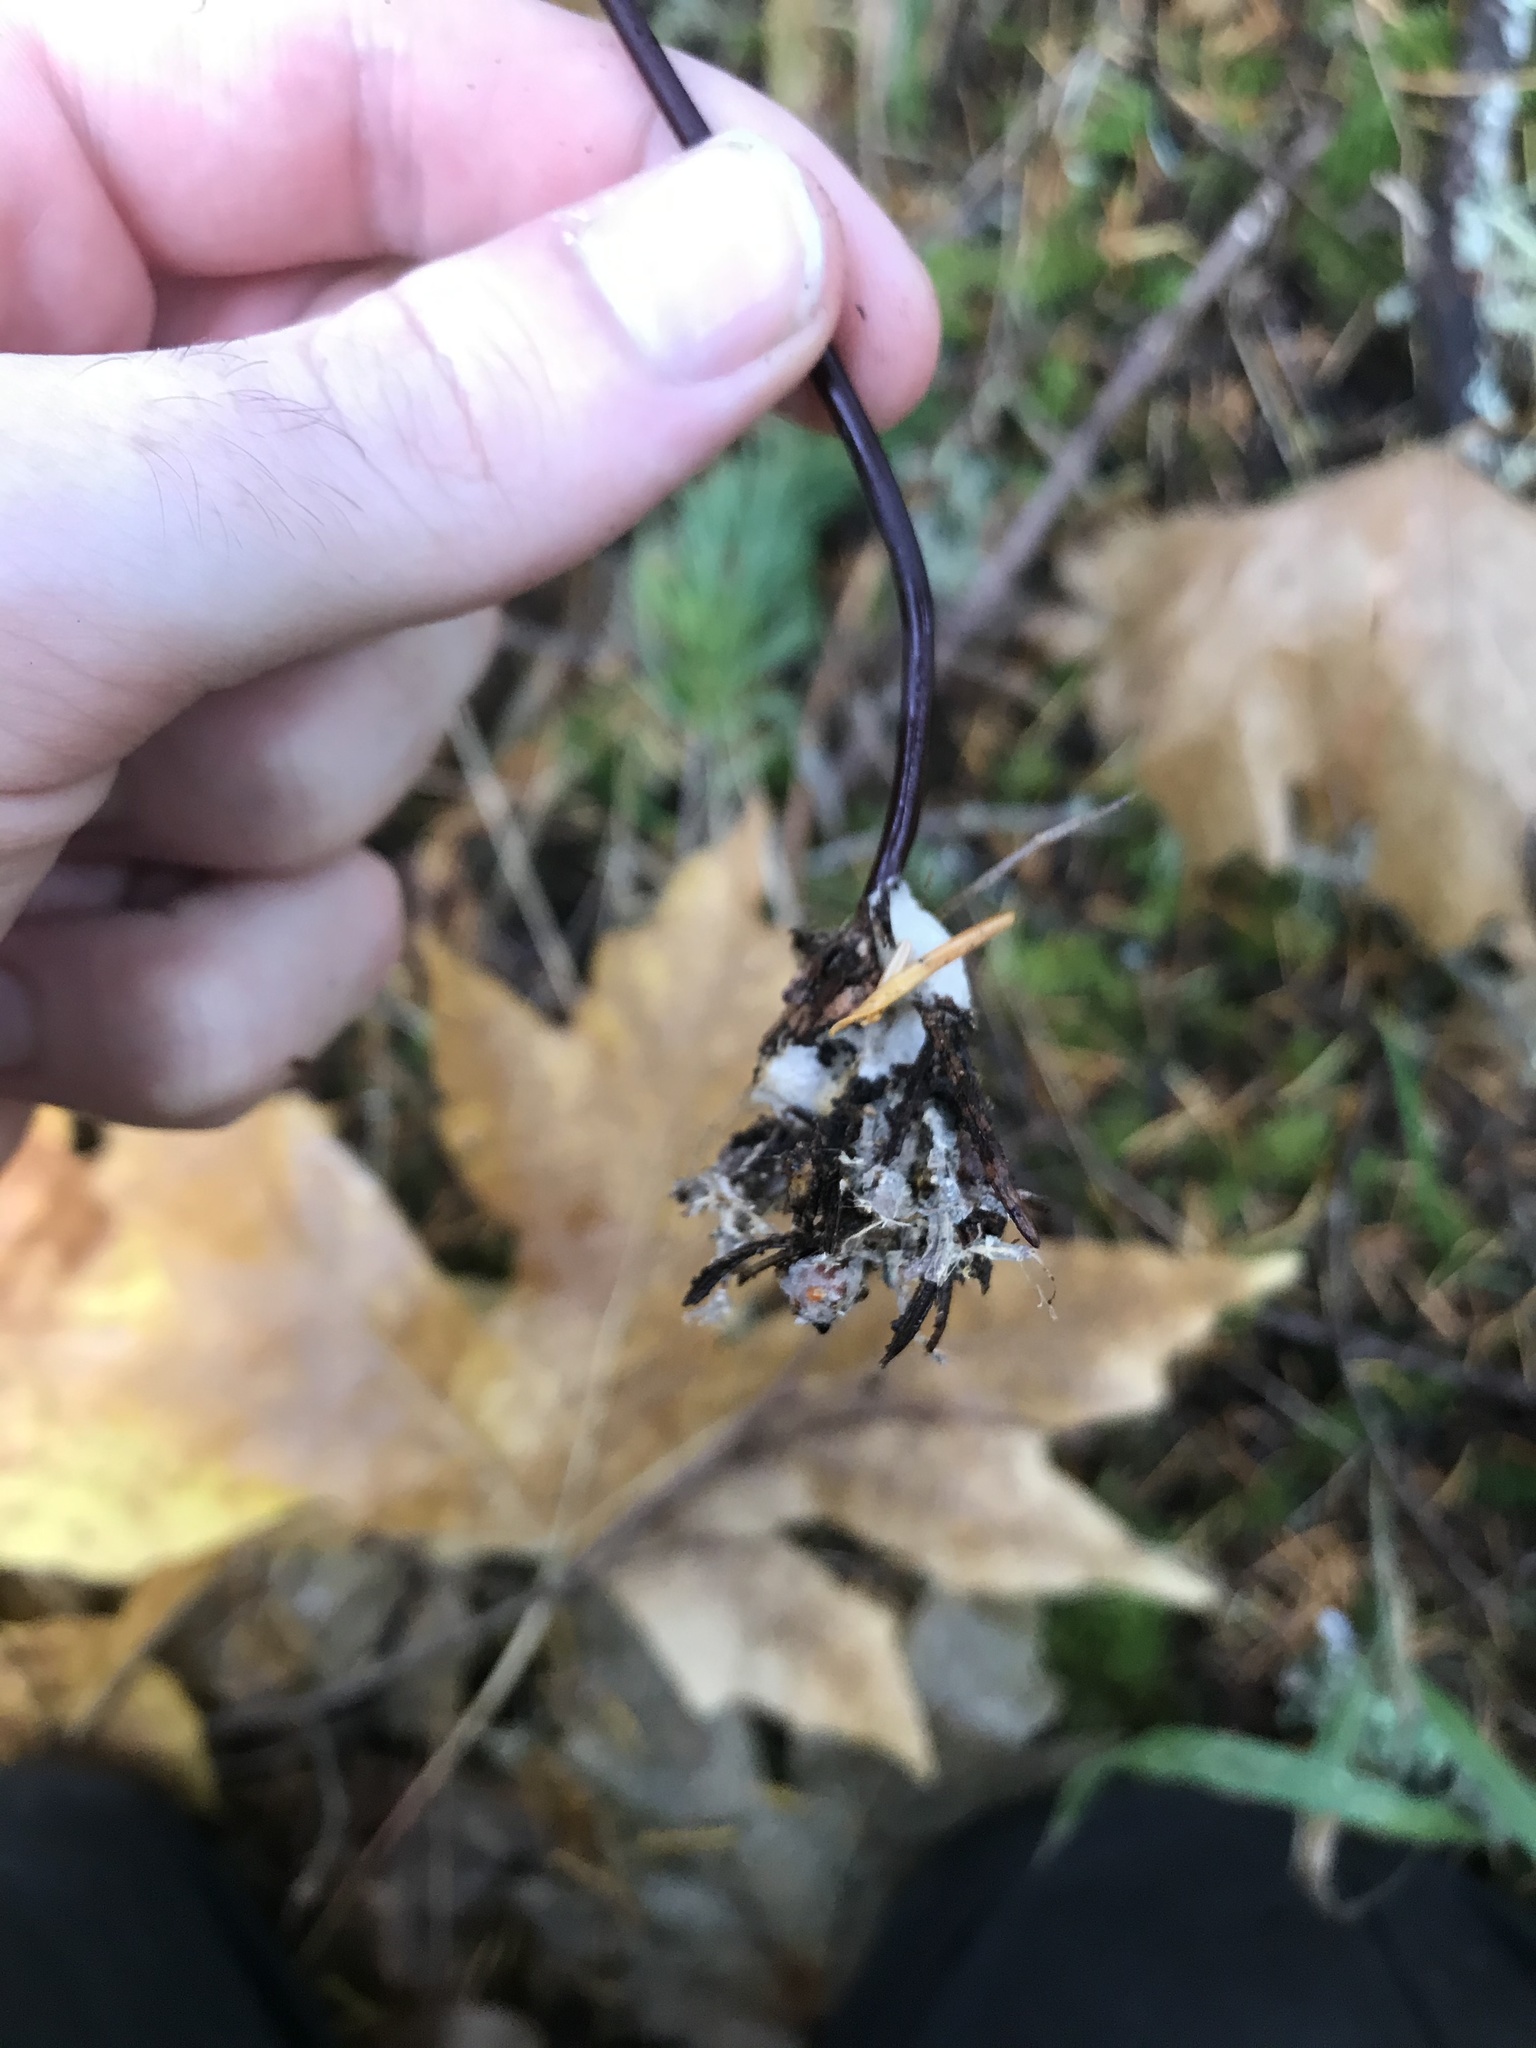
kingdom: Fungi
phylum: Basidiomycota
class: Agaricomycetes
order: Agaricales
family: Marasmiaceae
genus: Marasmius
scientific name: Marasmius plicatulus
